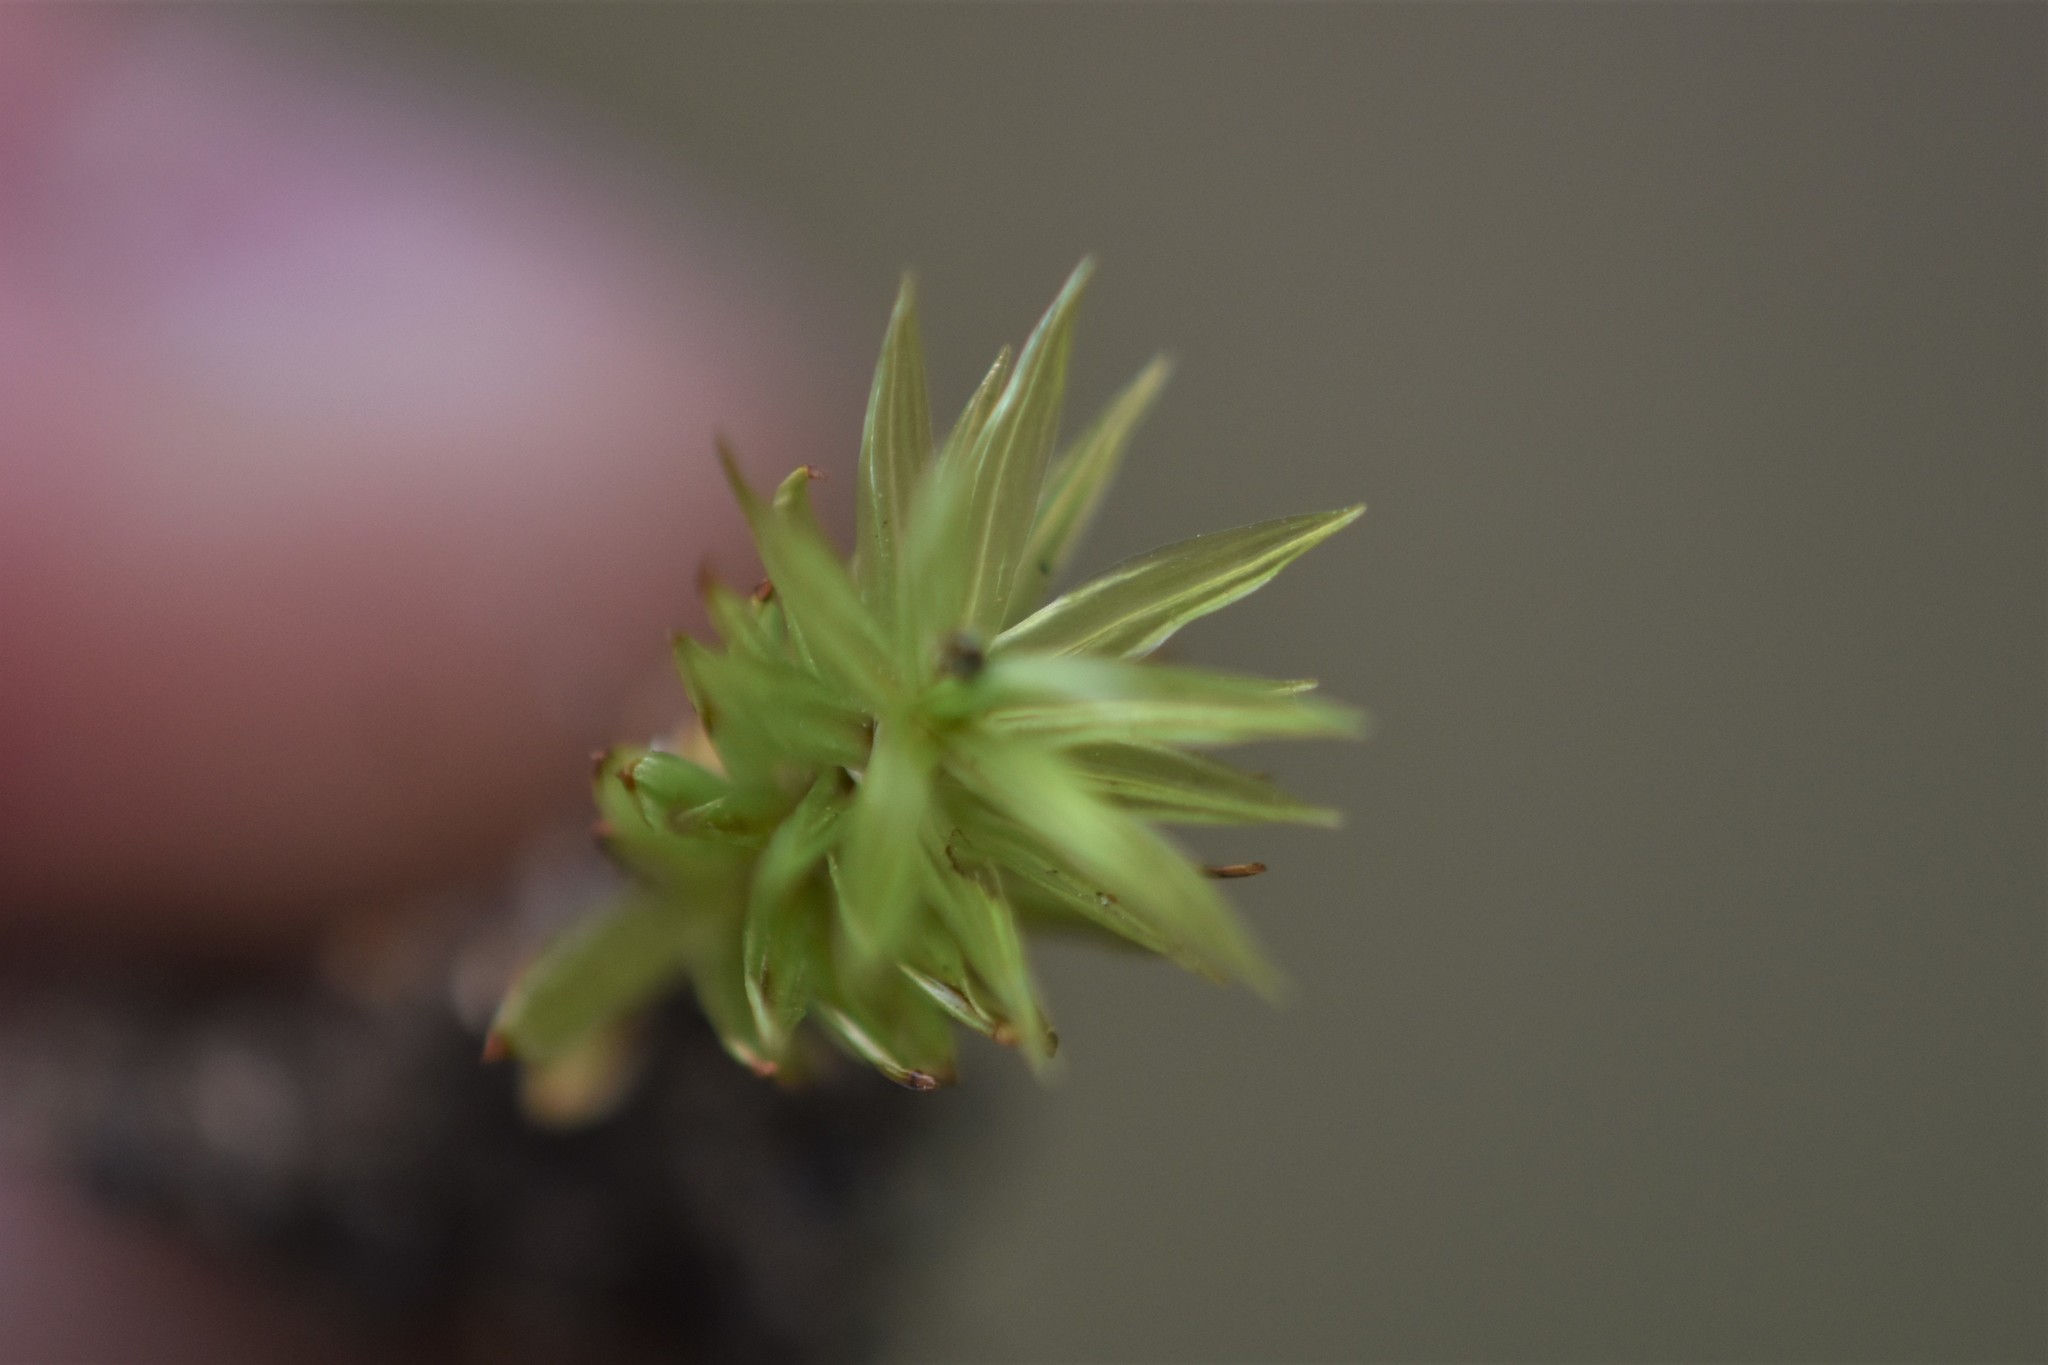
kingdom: Plantae
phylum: Bryophyta
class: Bryopsida
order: Timmiales
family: Timmiaceae
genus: Timmia
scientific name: Timmia austriaca
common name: Austrian timmia
